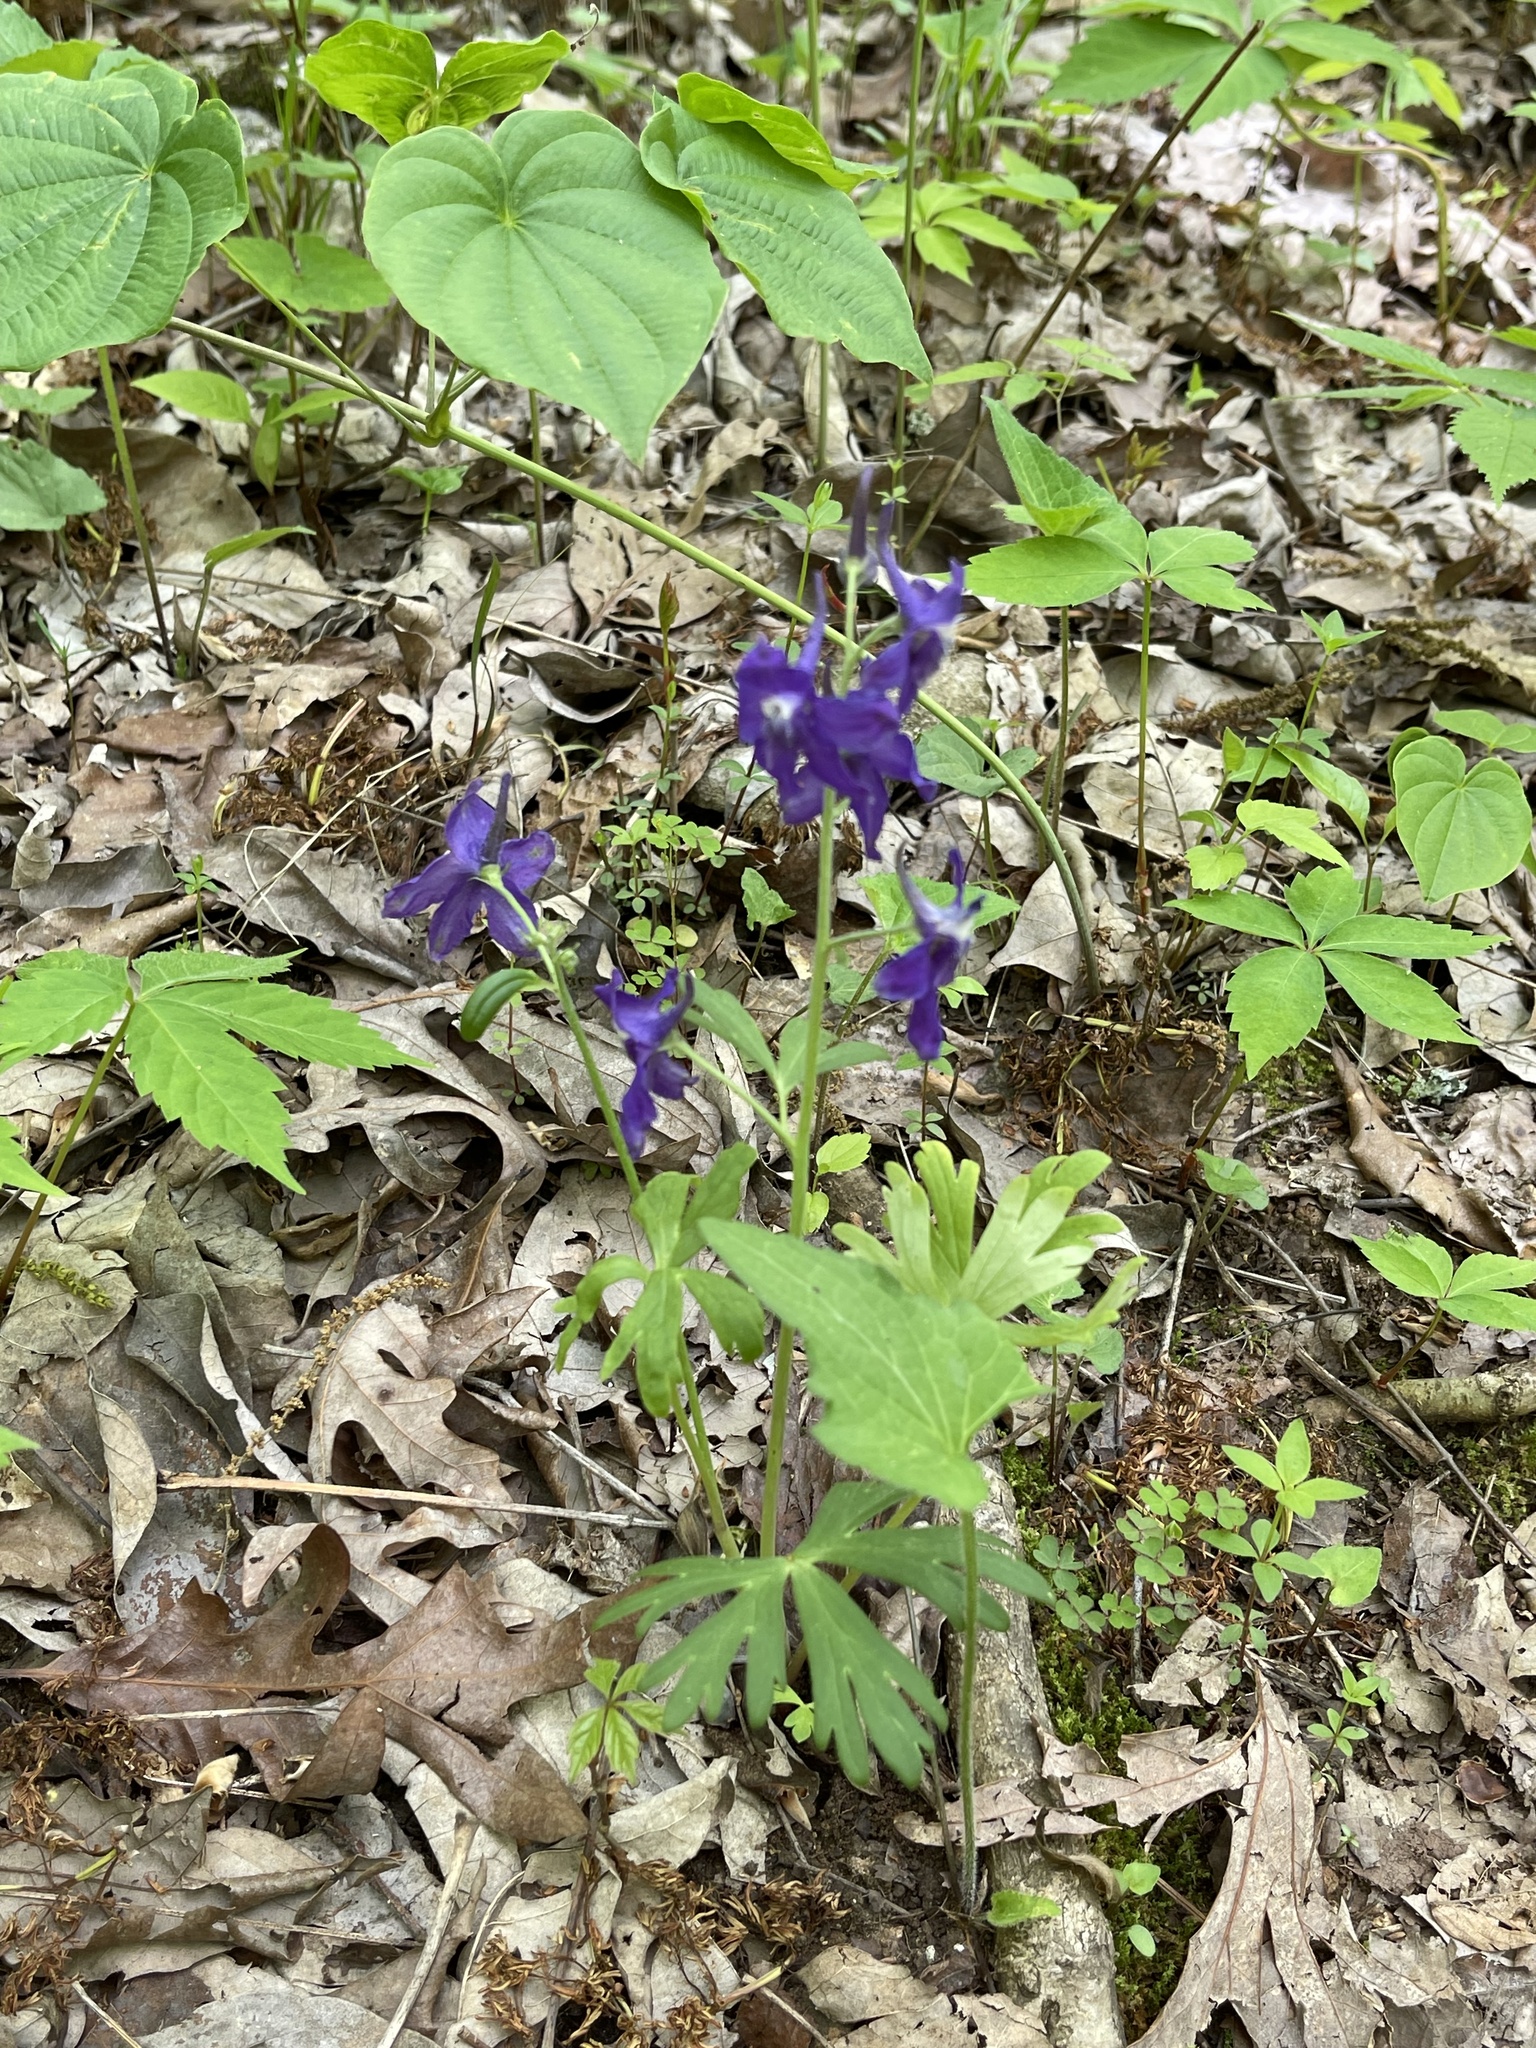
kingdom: Plantae
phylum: Tracheophyta
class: Magnoliopsida
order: Ranunculales
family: Ranunculaceae
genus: Delphinium
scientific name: Delphinium tricorne
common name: Dwarf larkspur
